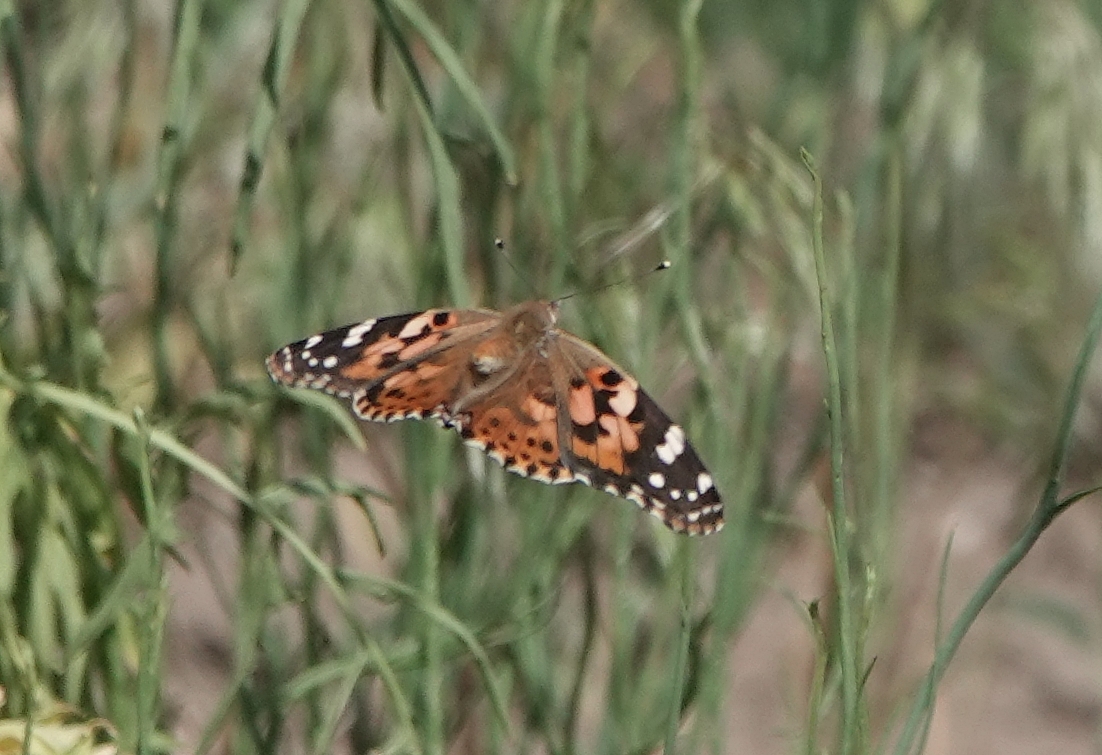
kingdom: Animalia
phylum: Arthropoda
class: Insecta
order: Lepidoptera
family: Nymphalidae
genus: Vanessa
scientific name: Vanessa cardui
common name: Painted lady
